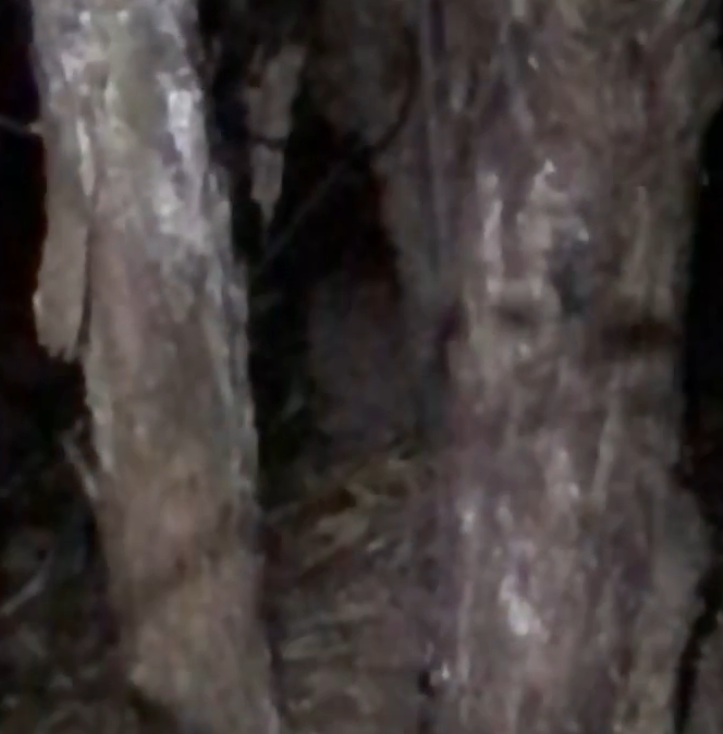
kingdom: Animalia
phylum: Chordata
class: Aves
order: Apterygiformes
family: Apterygidae
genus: Apteryx
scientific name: Apteryx mantelli
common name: North island brown kiwi
